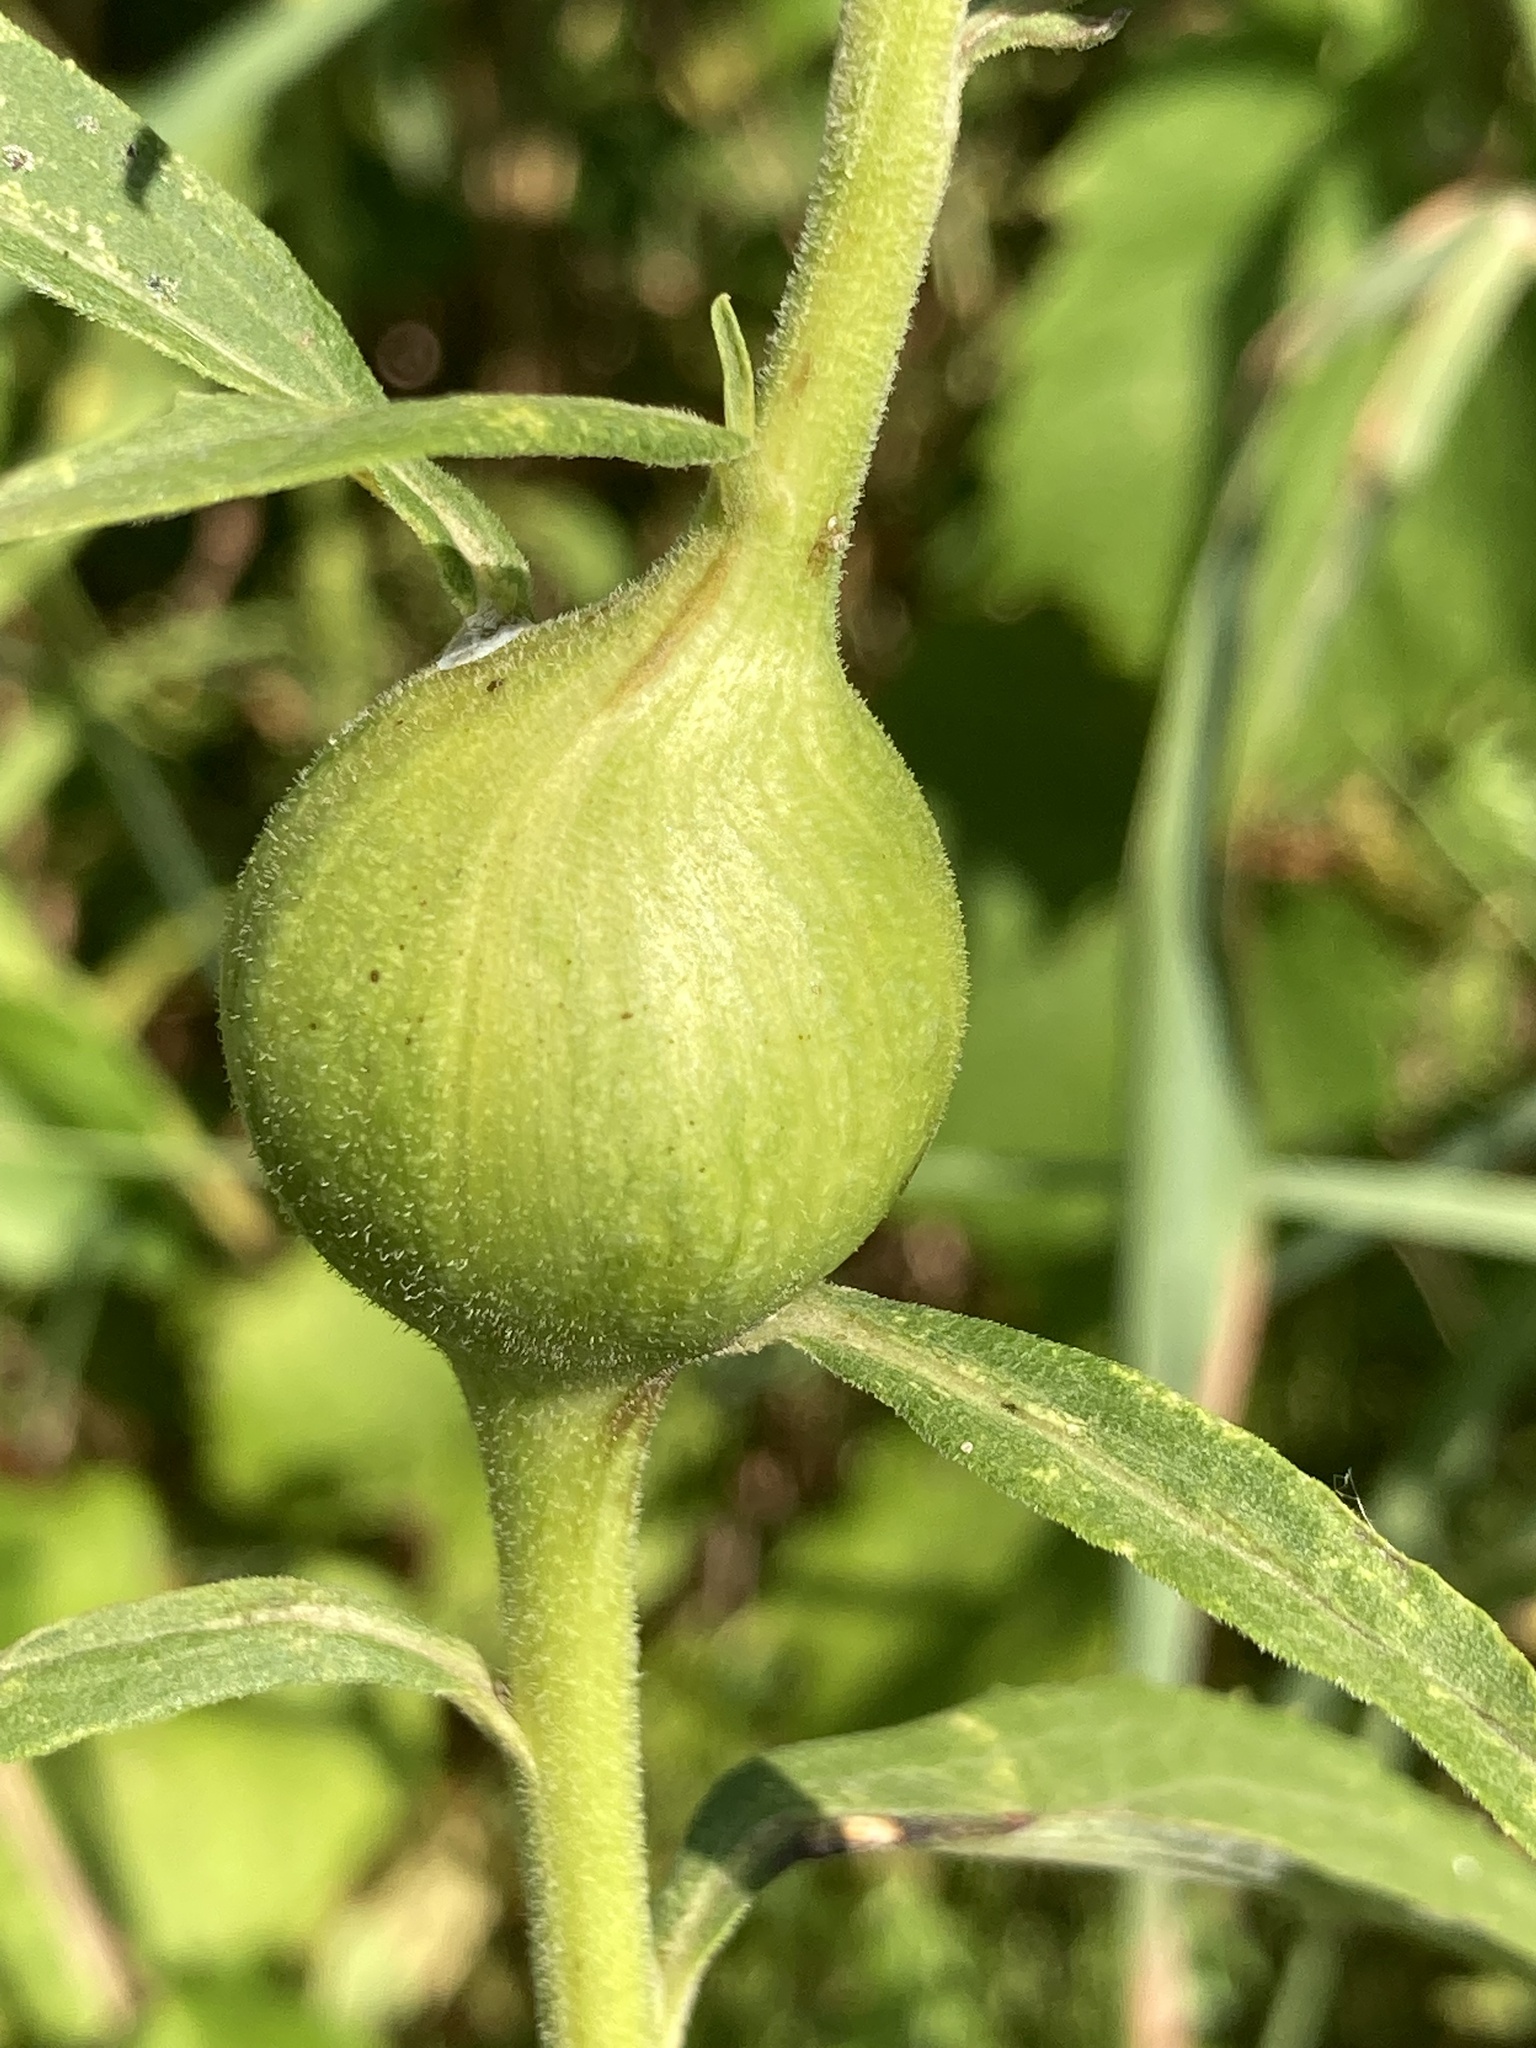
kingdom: Animalia
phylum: Arthropoda
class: Insecta
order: Diptera
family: Tephritidae
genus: Eurosta
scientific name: Eurosta solidaginis
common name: Goldenrod gall fly
